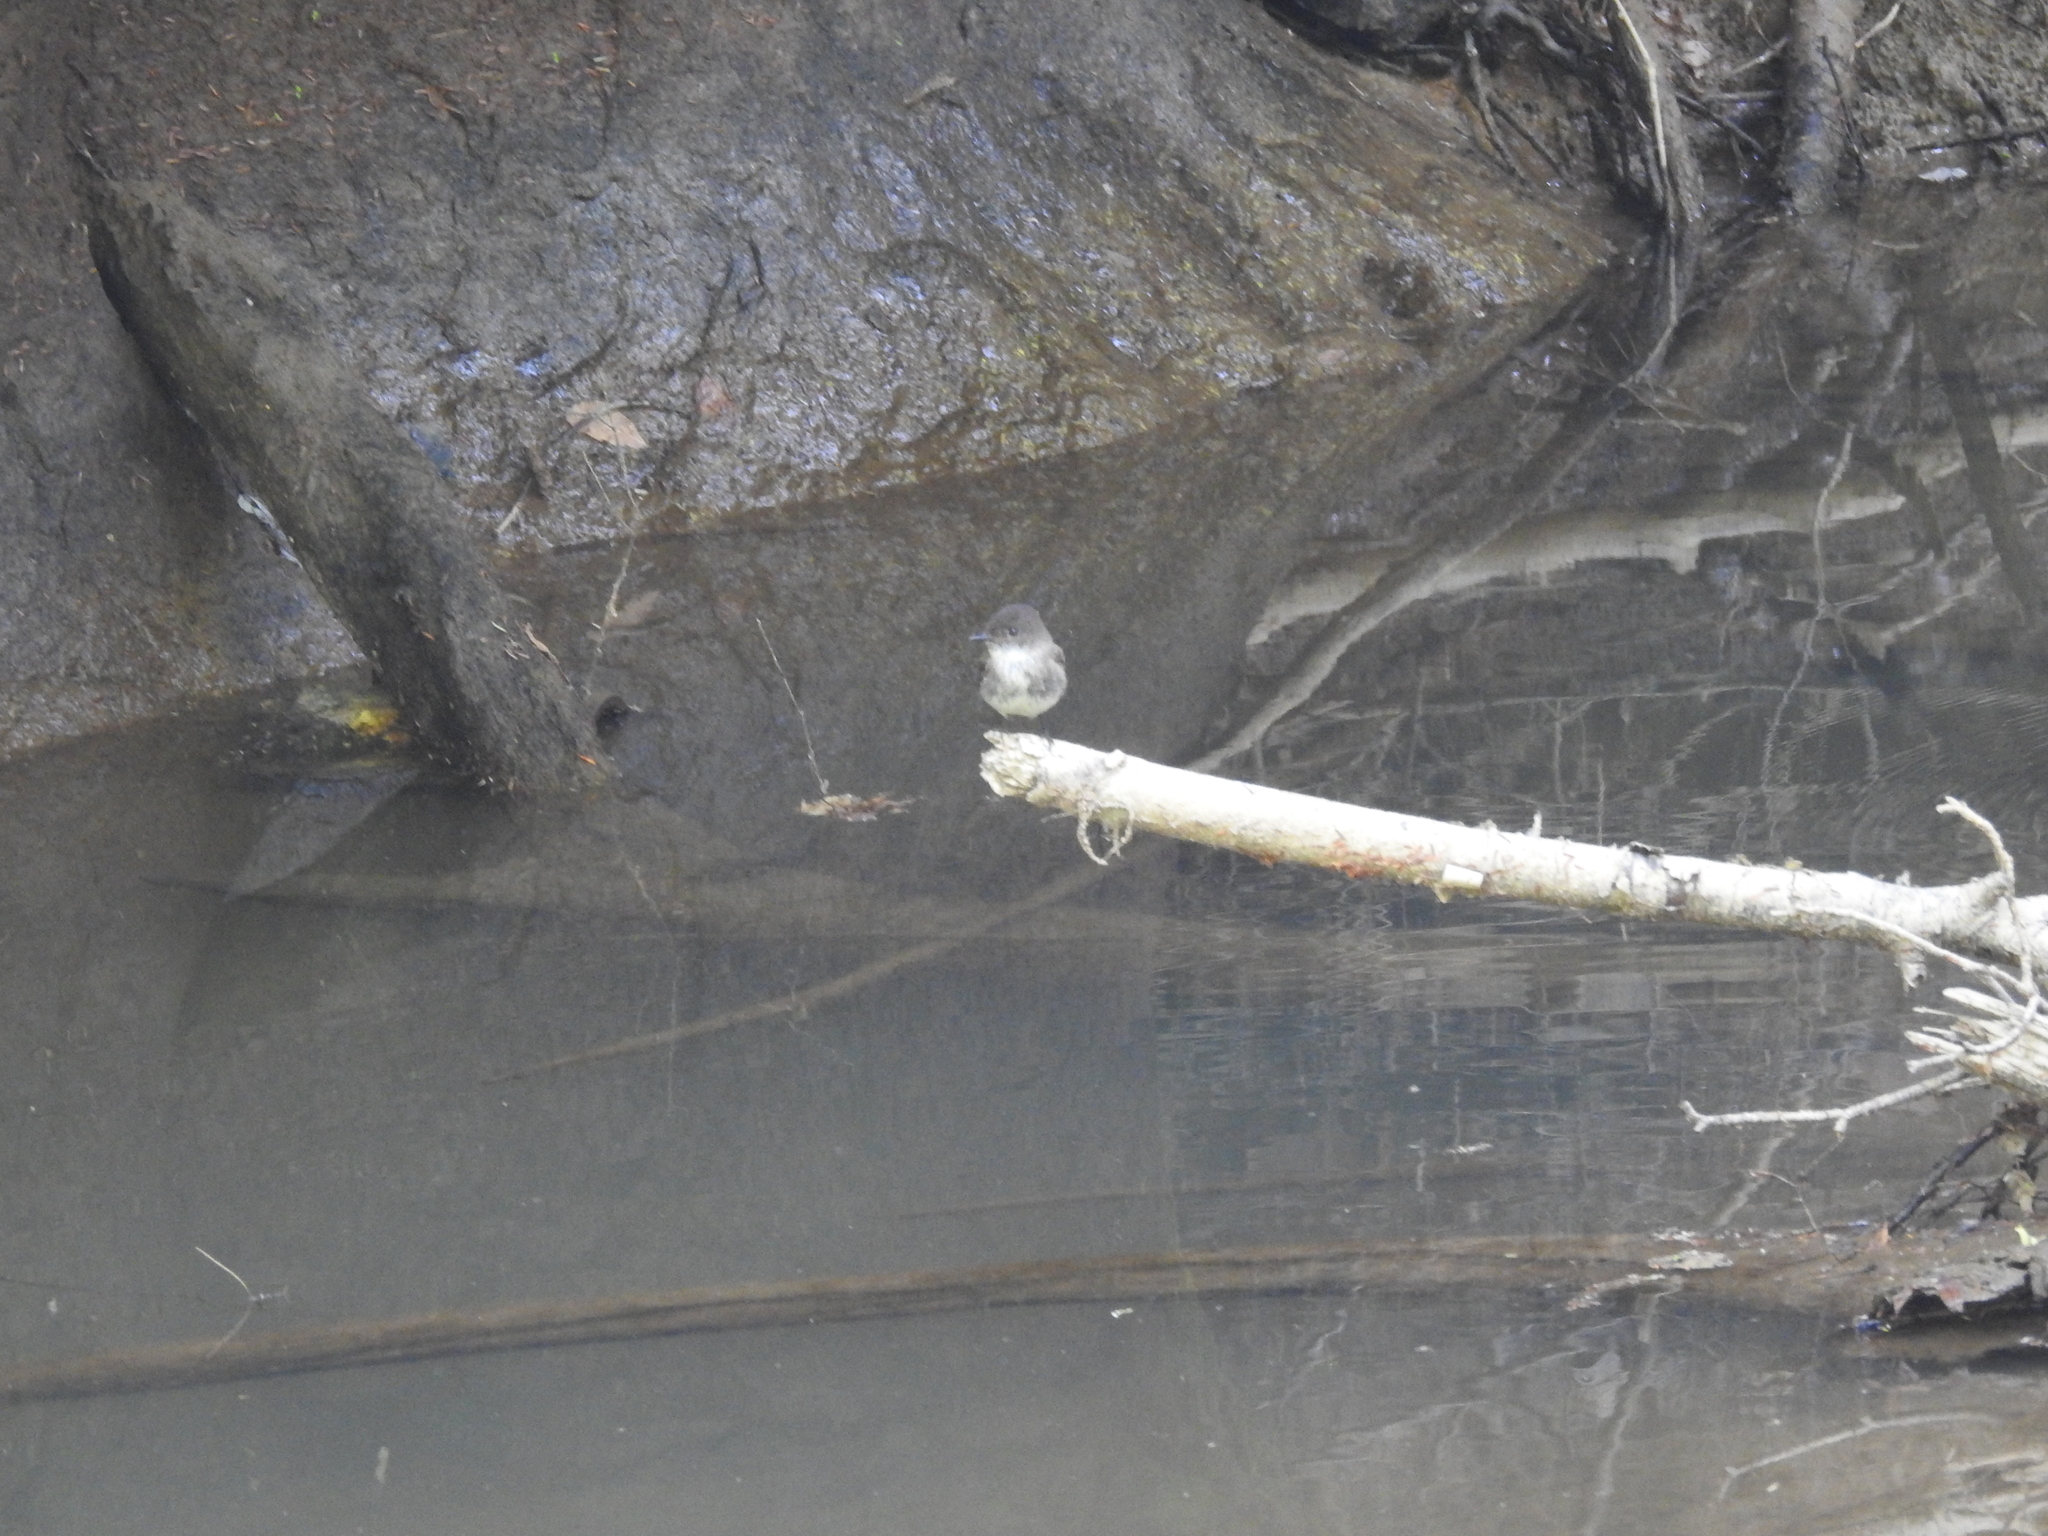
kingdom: Animalia
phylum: Chordata
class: Aves
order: Passeriformes
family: Tyrannidae
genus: Sayornis
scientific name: Sayornis phoebe
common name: Eastern phoebe
